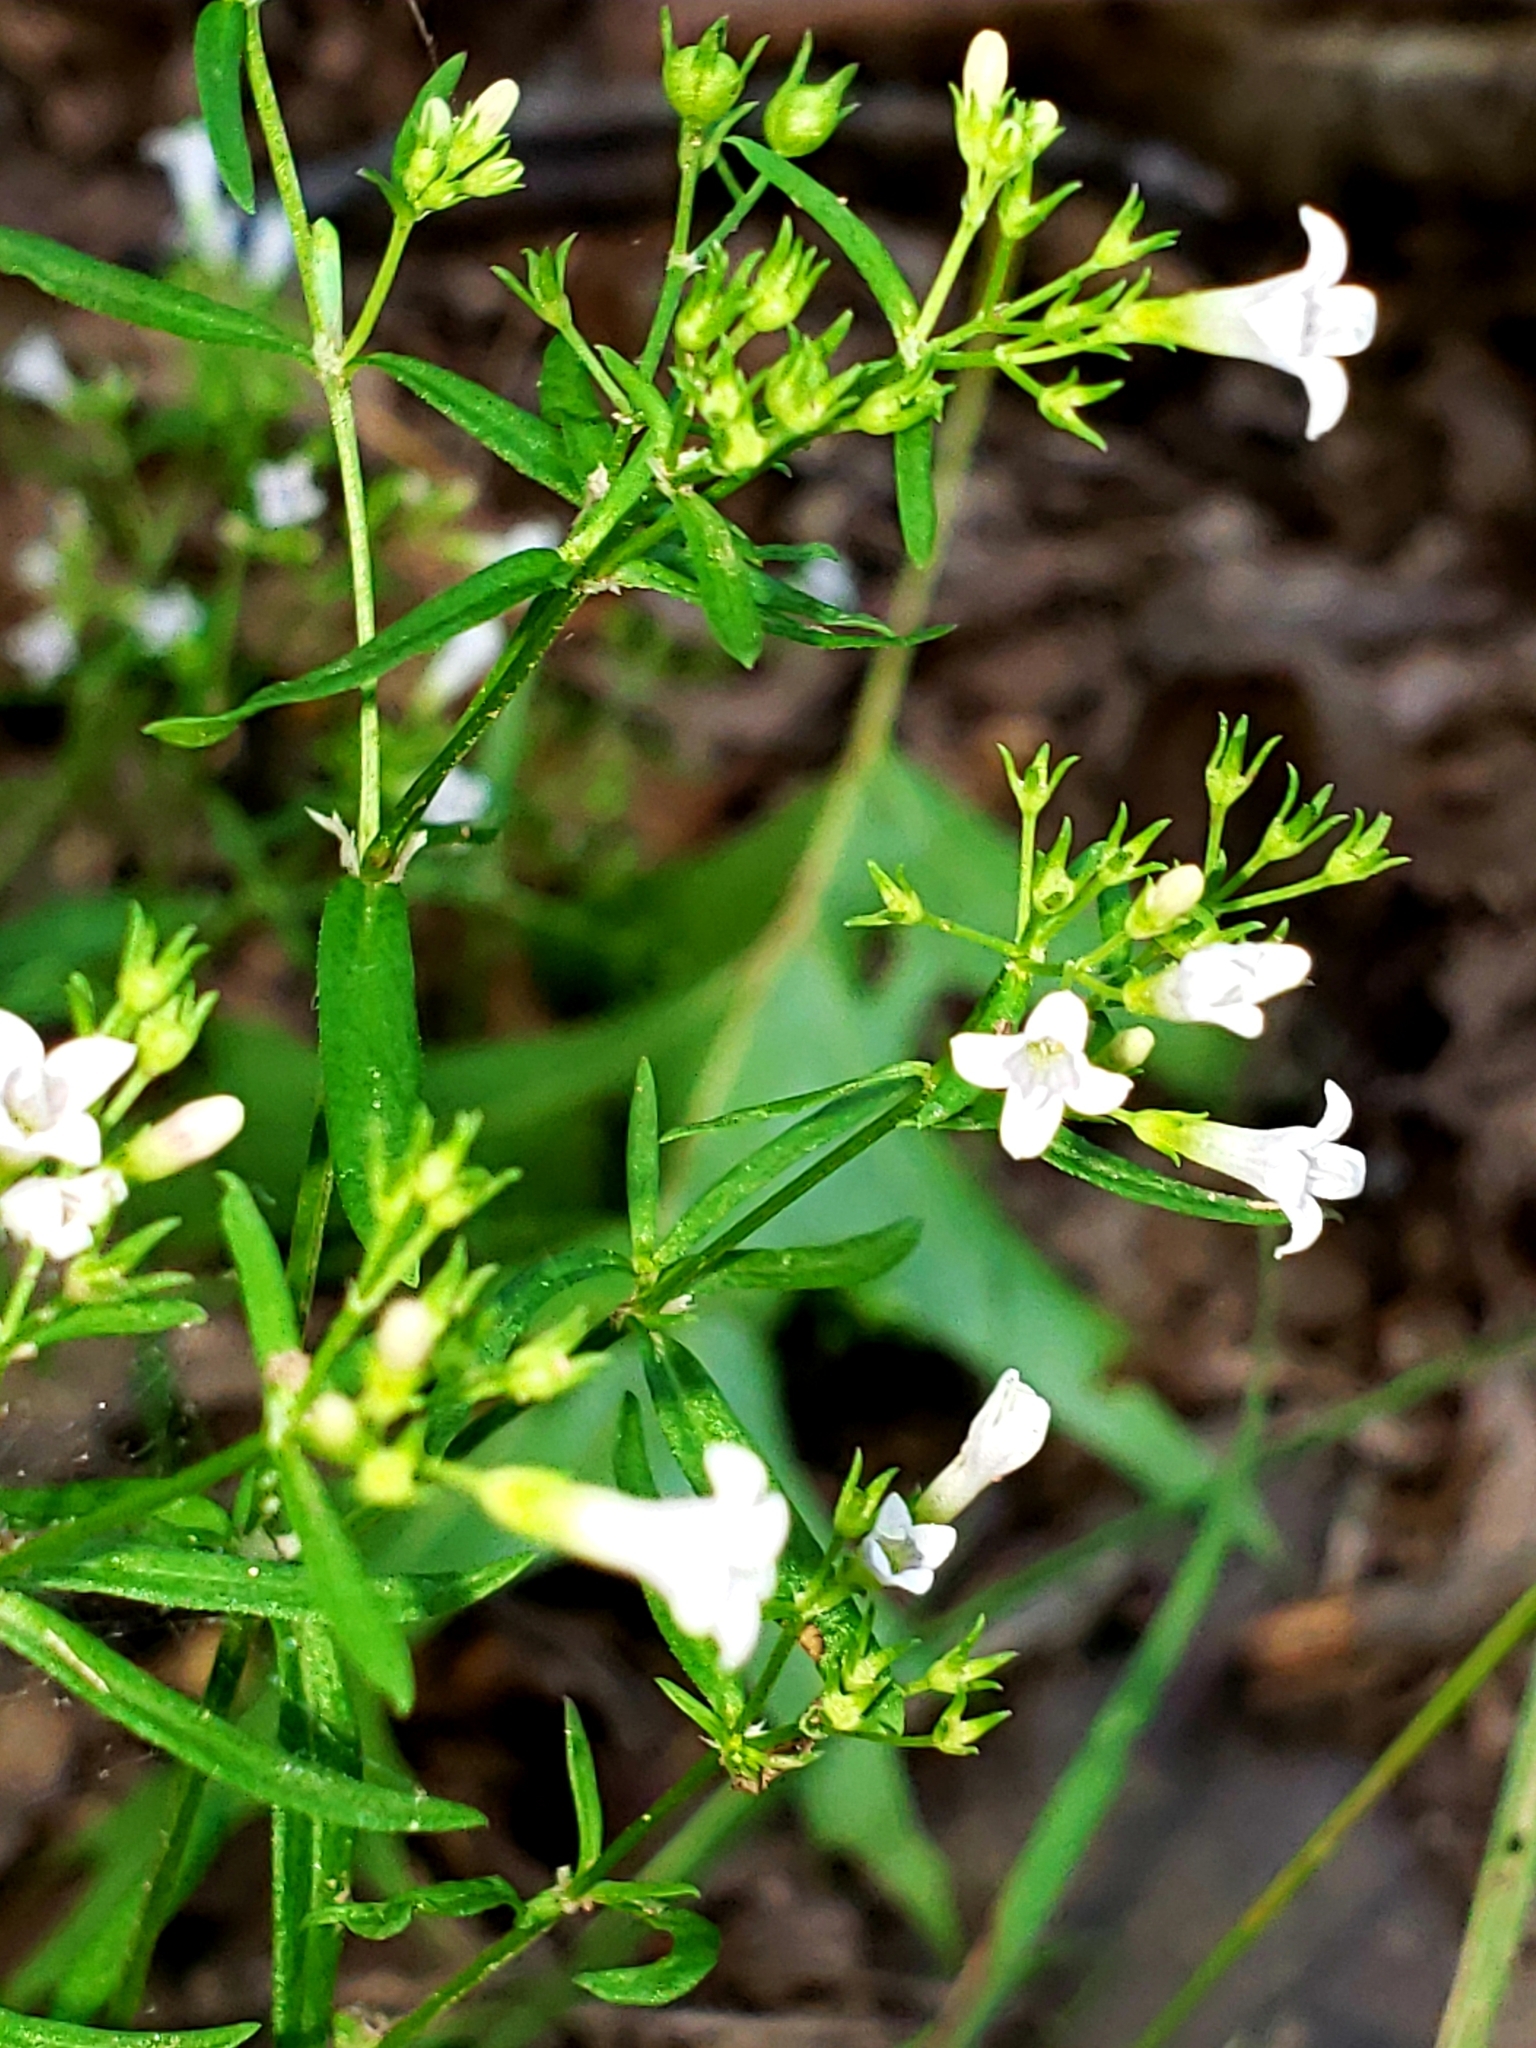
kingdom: Plantae
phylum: Tracheophyta
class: Magnoliopsida
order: Gentianales
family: Rubiaceae
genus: Houstonia
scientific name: Houstonia longifolia
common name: Long-leaved bluets
